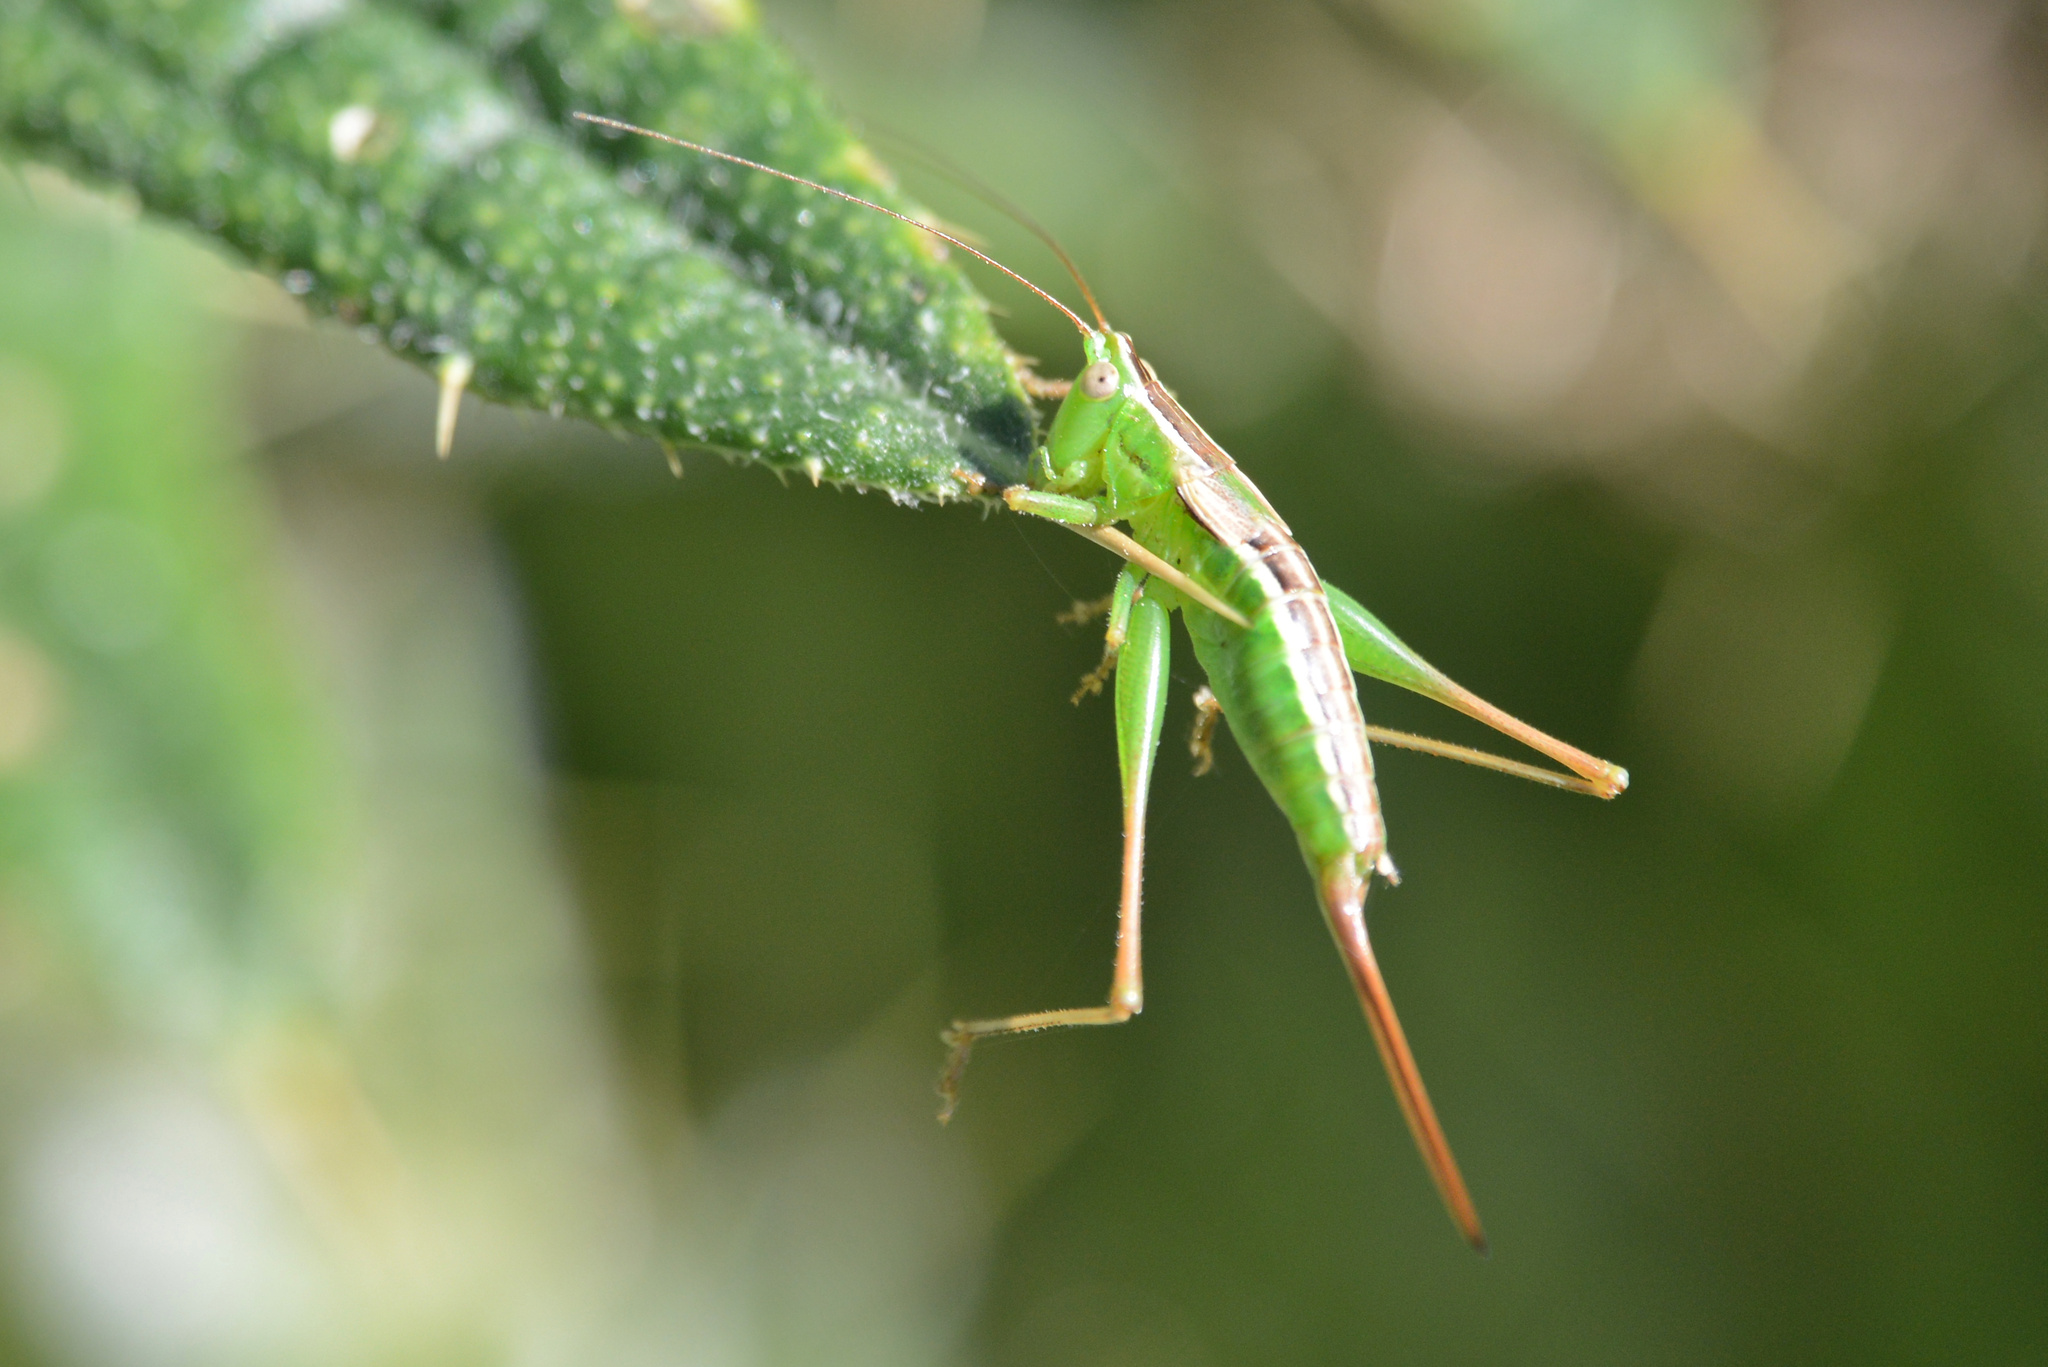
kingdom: Animalia
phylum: Arthropoda
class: Insecta
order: Orthoptera
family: Tettigoniidae
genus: Conocephalus
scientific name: Conocephalus bilineatus
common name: Small meadow katydid
